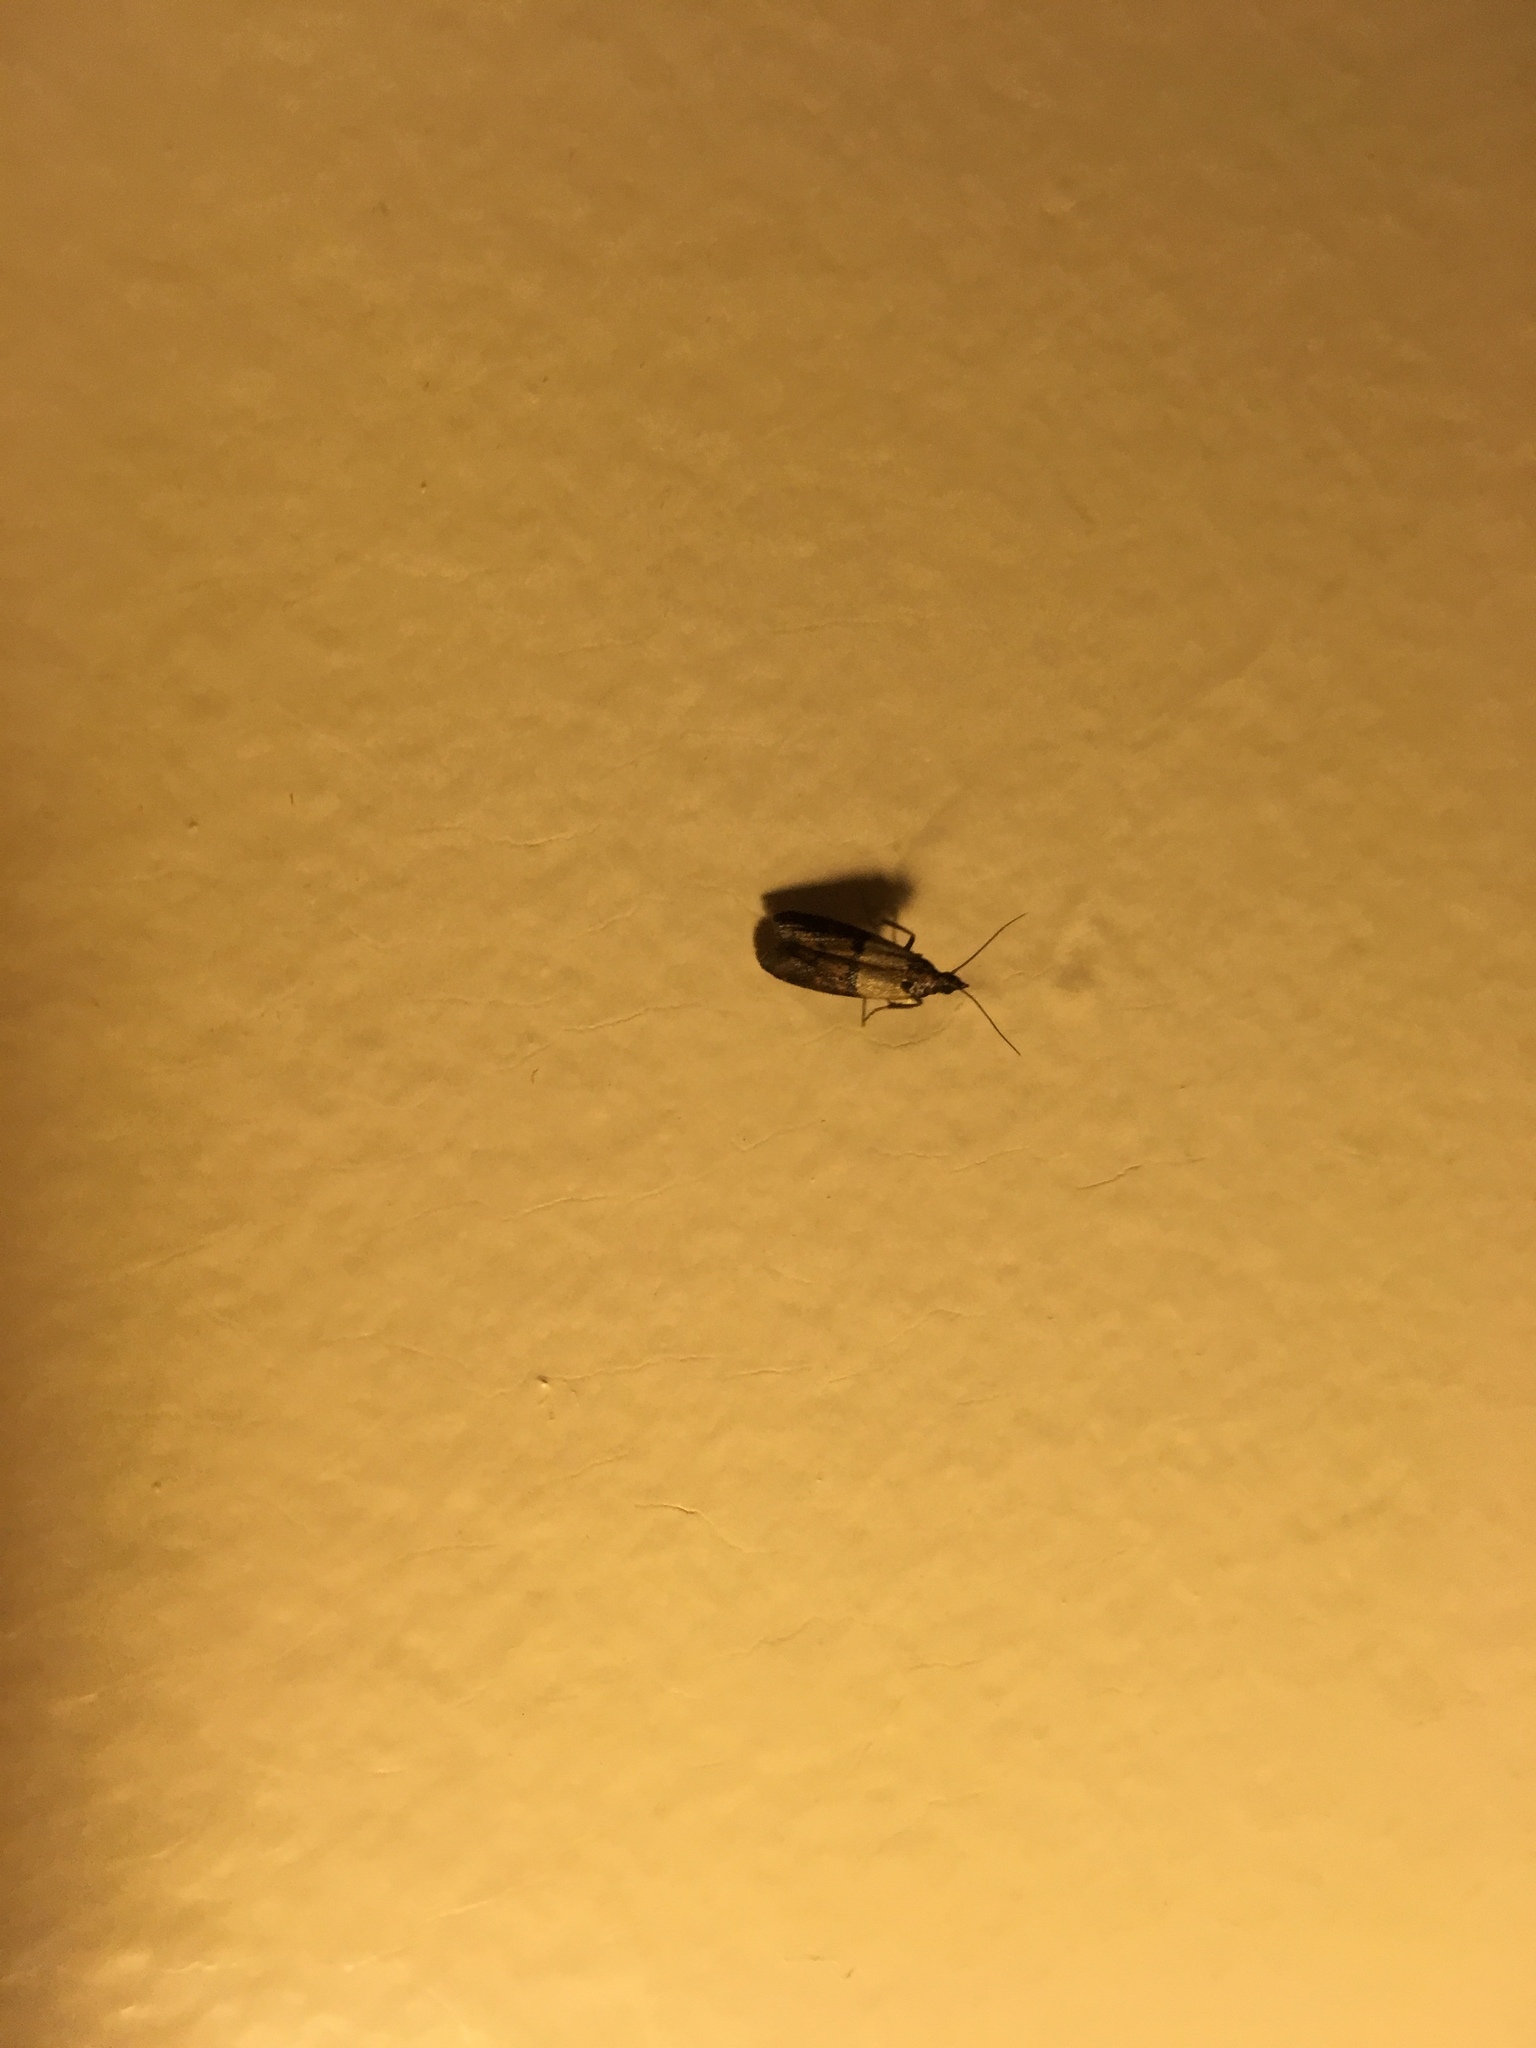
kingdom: Animalia
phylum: Arthropoda
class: Insecta
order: Lepidoptera
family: Pyralidae
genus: Plodia
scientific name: Plodia interpunctella
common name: Indian meal moth
